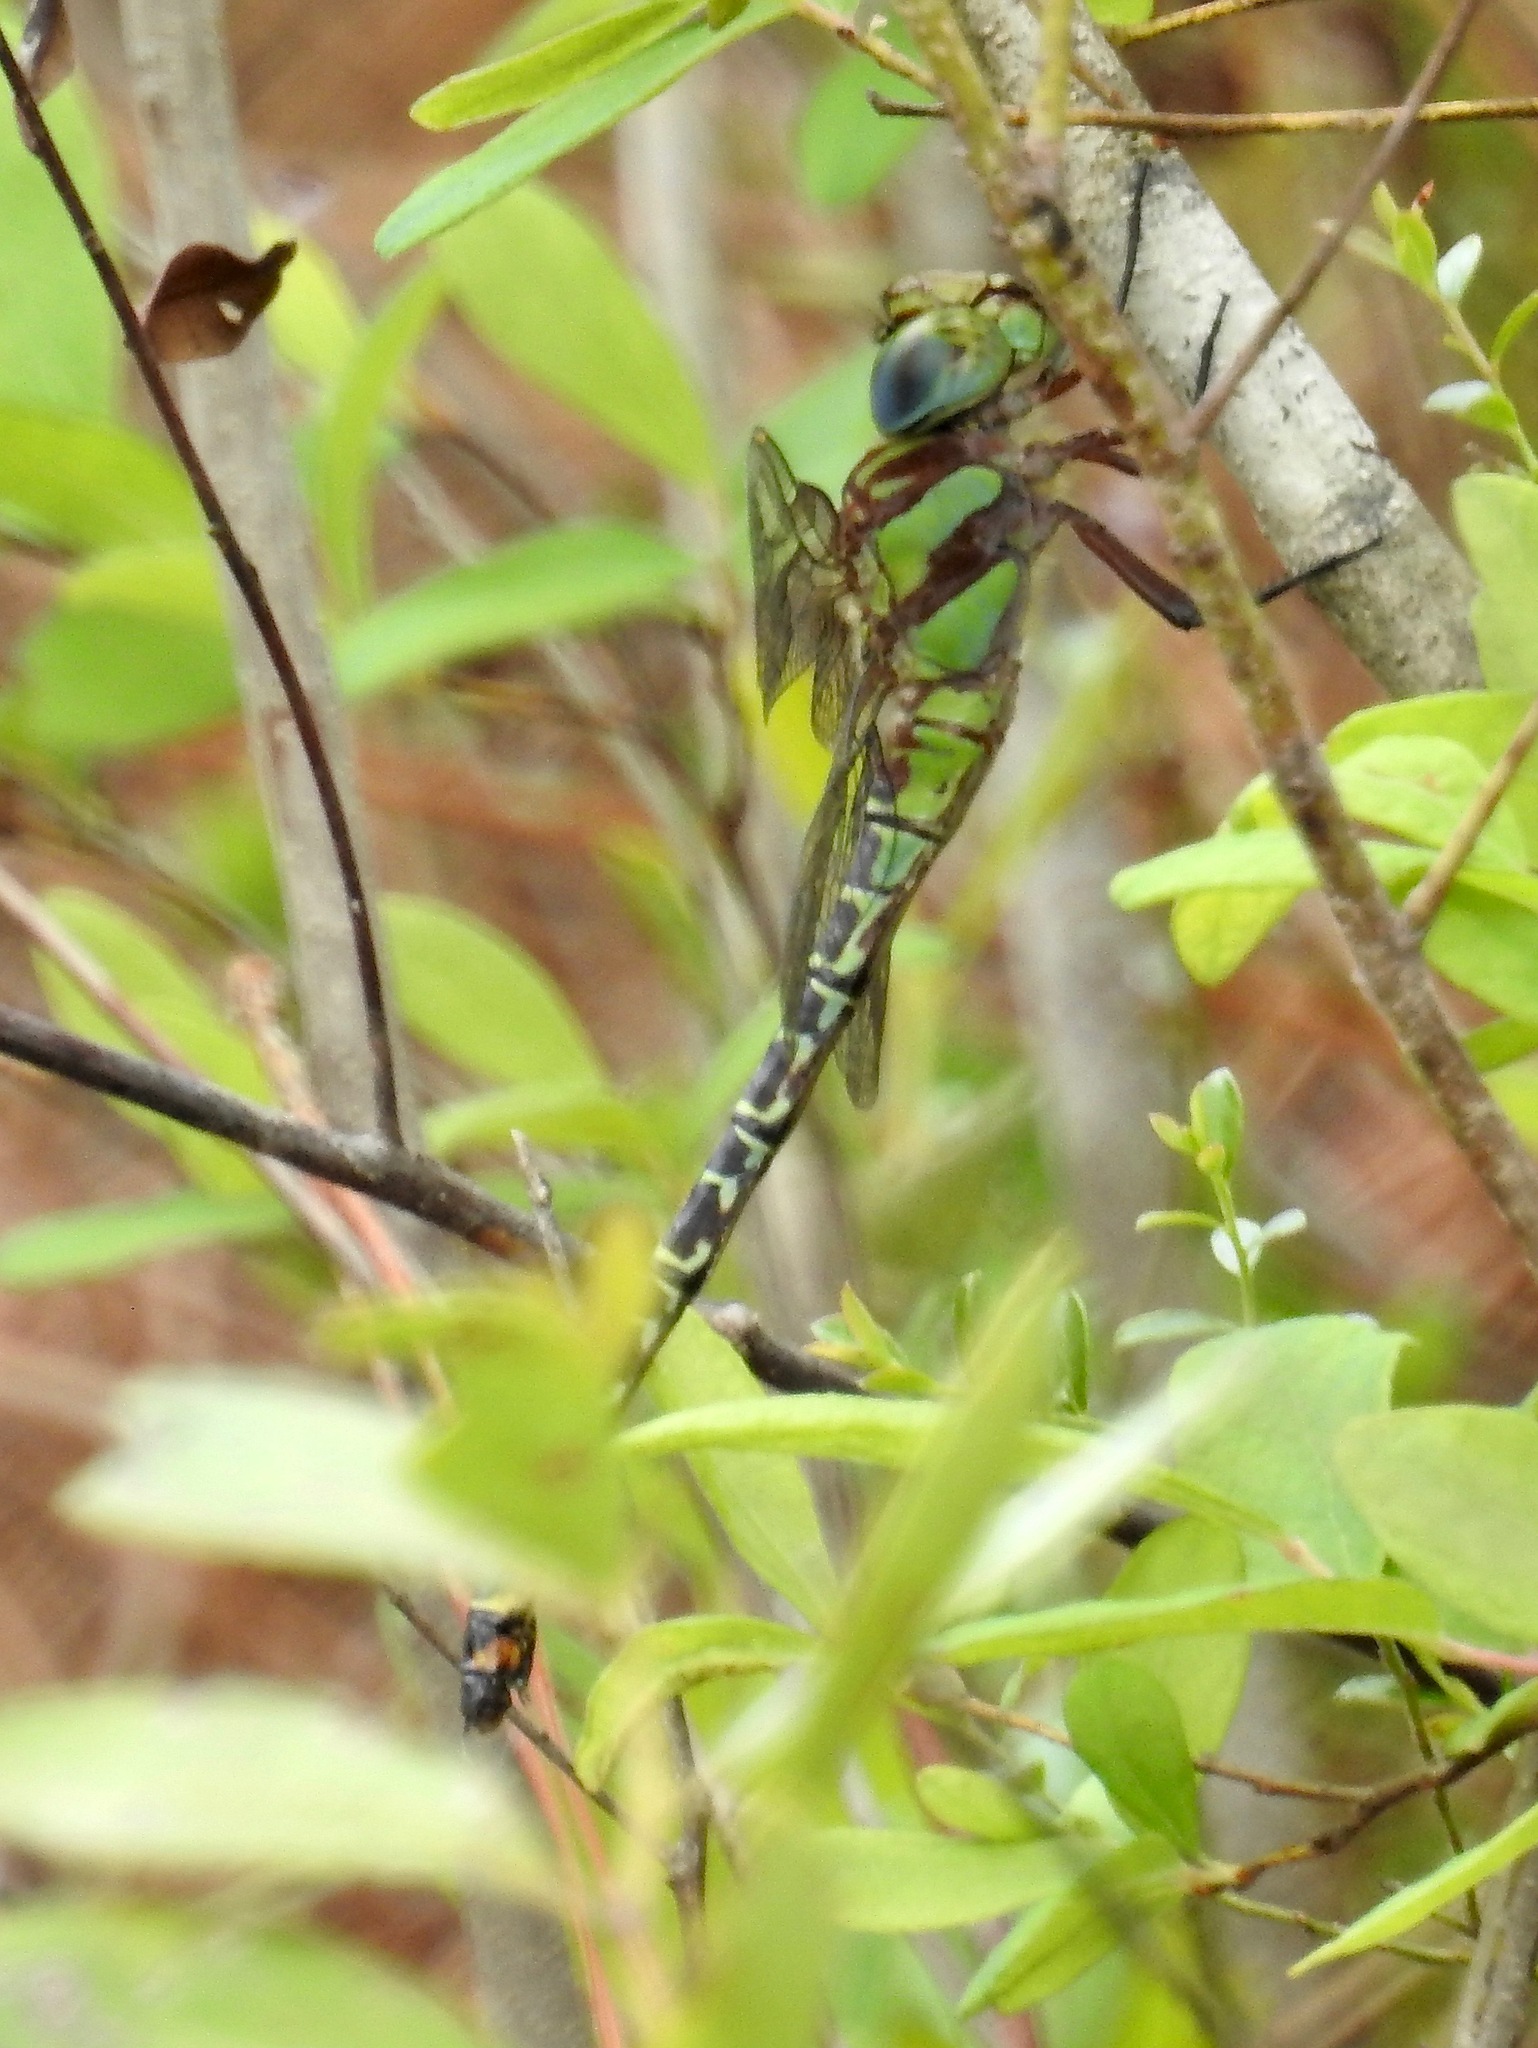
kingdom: Animalia
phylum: Arthropoda
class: Insecta
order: Odonata
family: Aeshnidae
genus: Coryphaeschna
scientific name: Coryphaeschna ingens
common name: Regal darner
